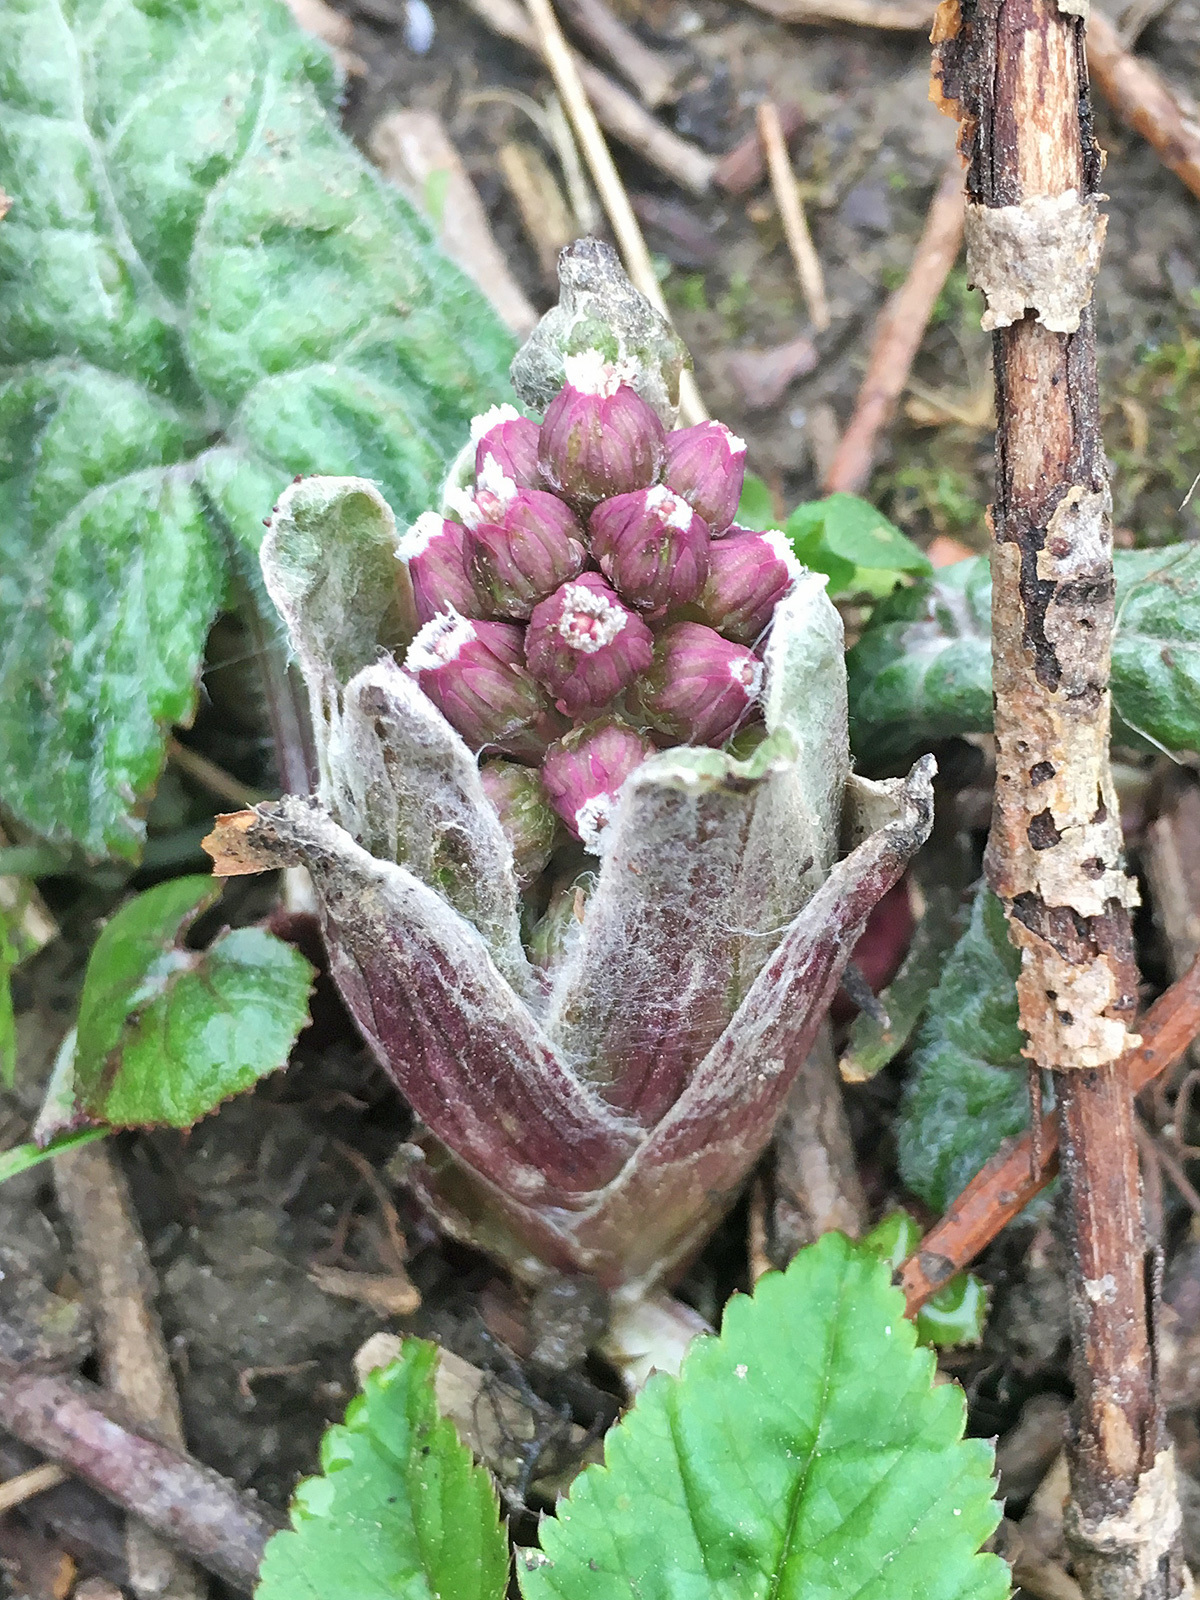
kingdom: Plantae
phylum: Tracheophyta
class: Magnoliopsida
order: Asterales
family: Asteraceae
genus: Petasites
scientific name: Petasites hybridus
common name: Butterbur
